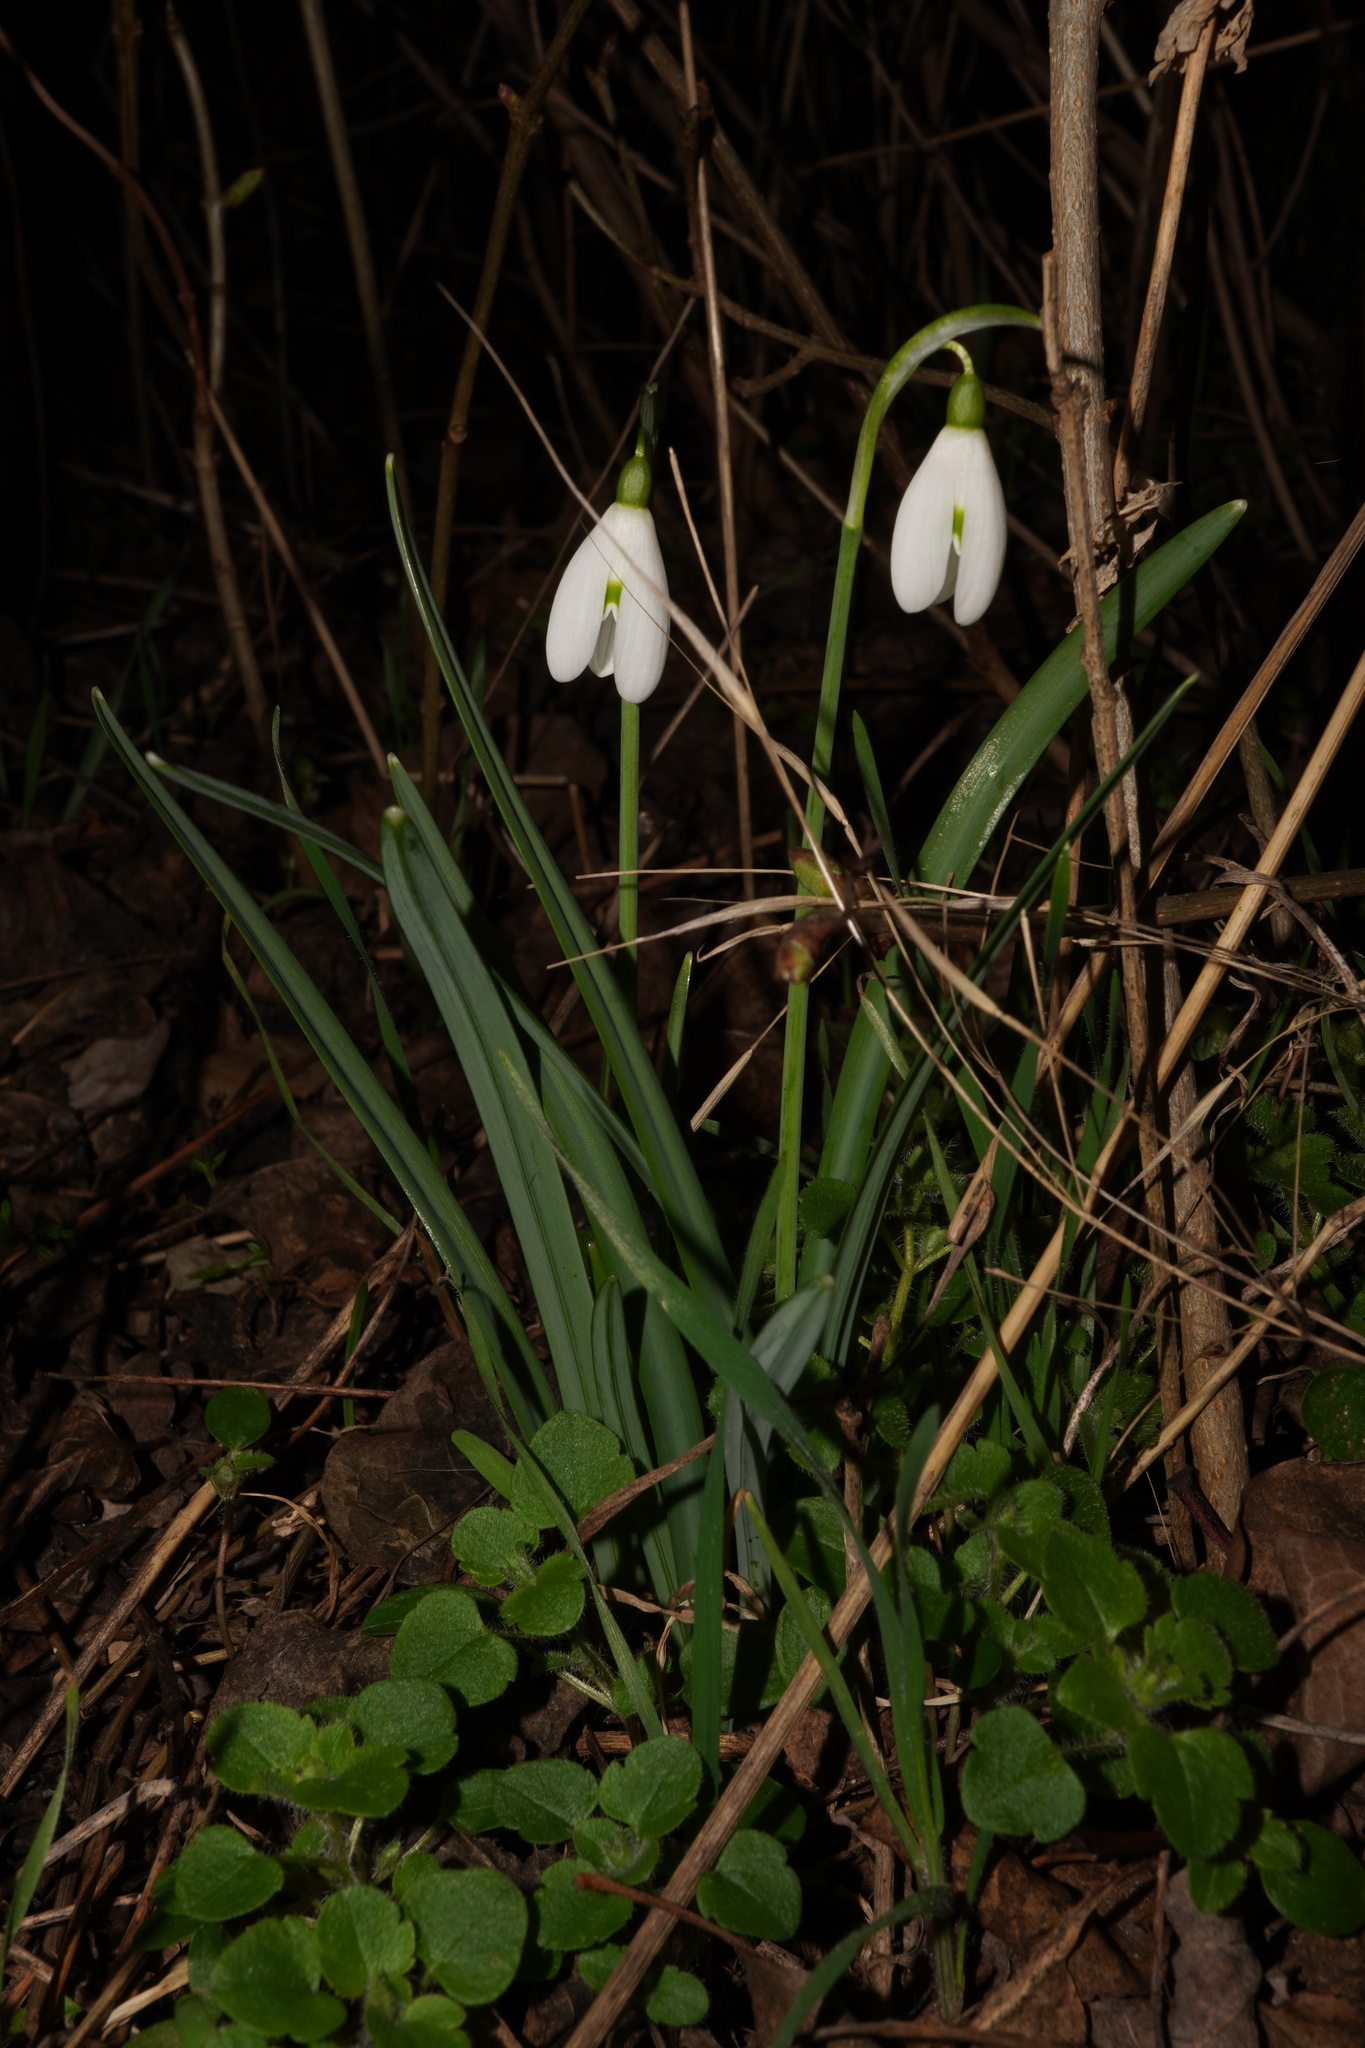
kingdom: Plantae
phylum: Tracheophyta
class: Liliopsida
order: Asparagales
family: Amaryllidaceae
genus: Galanthus
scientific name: Galanthus nivalis
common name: Snowdrop
